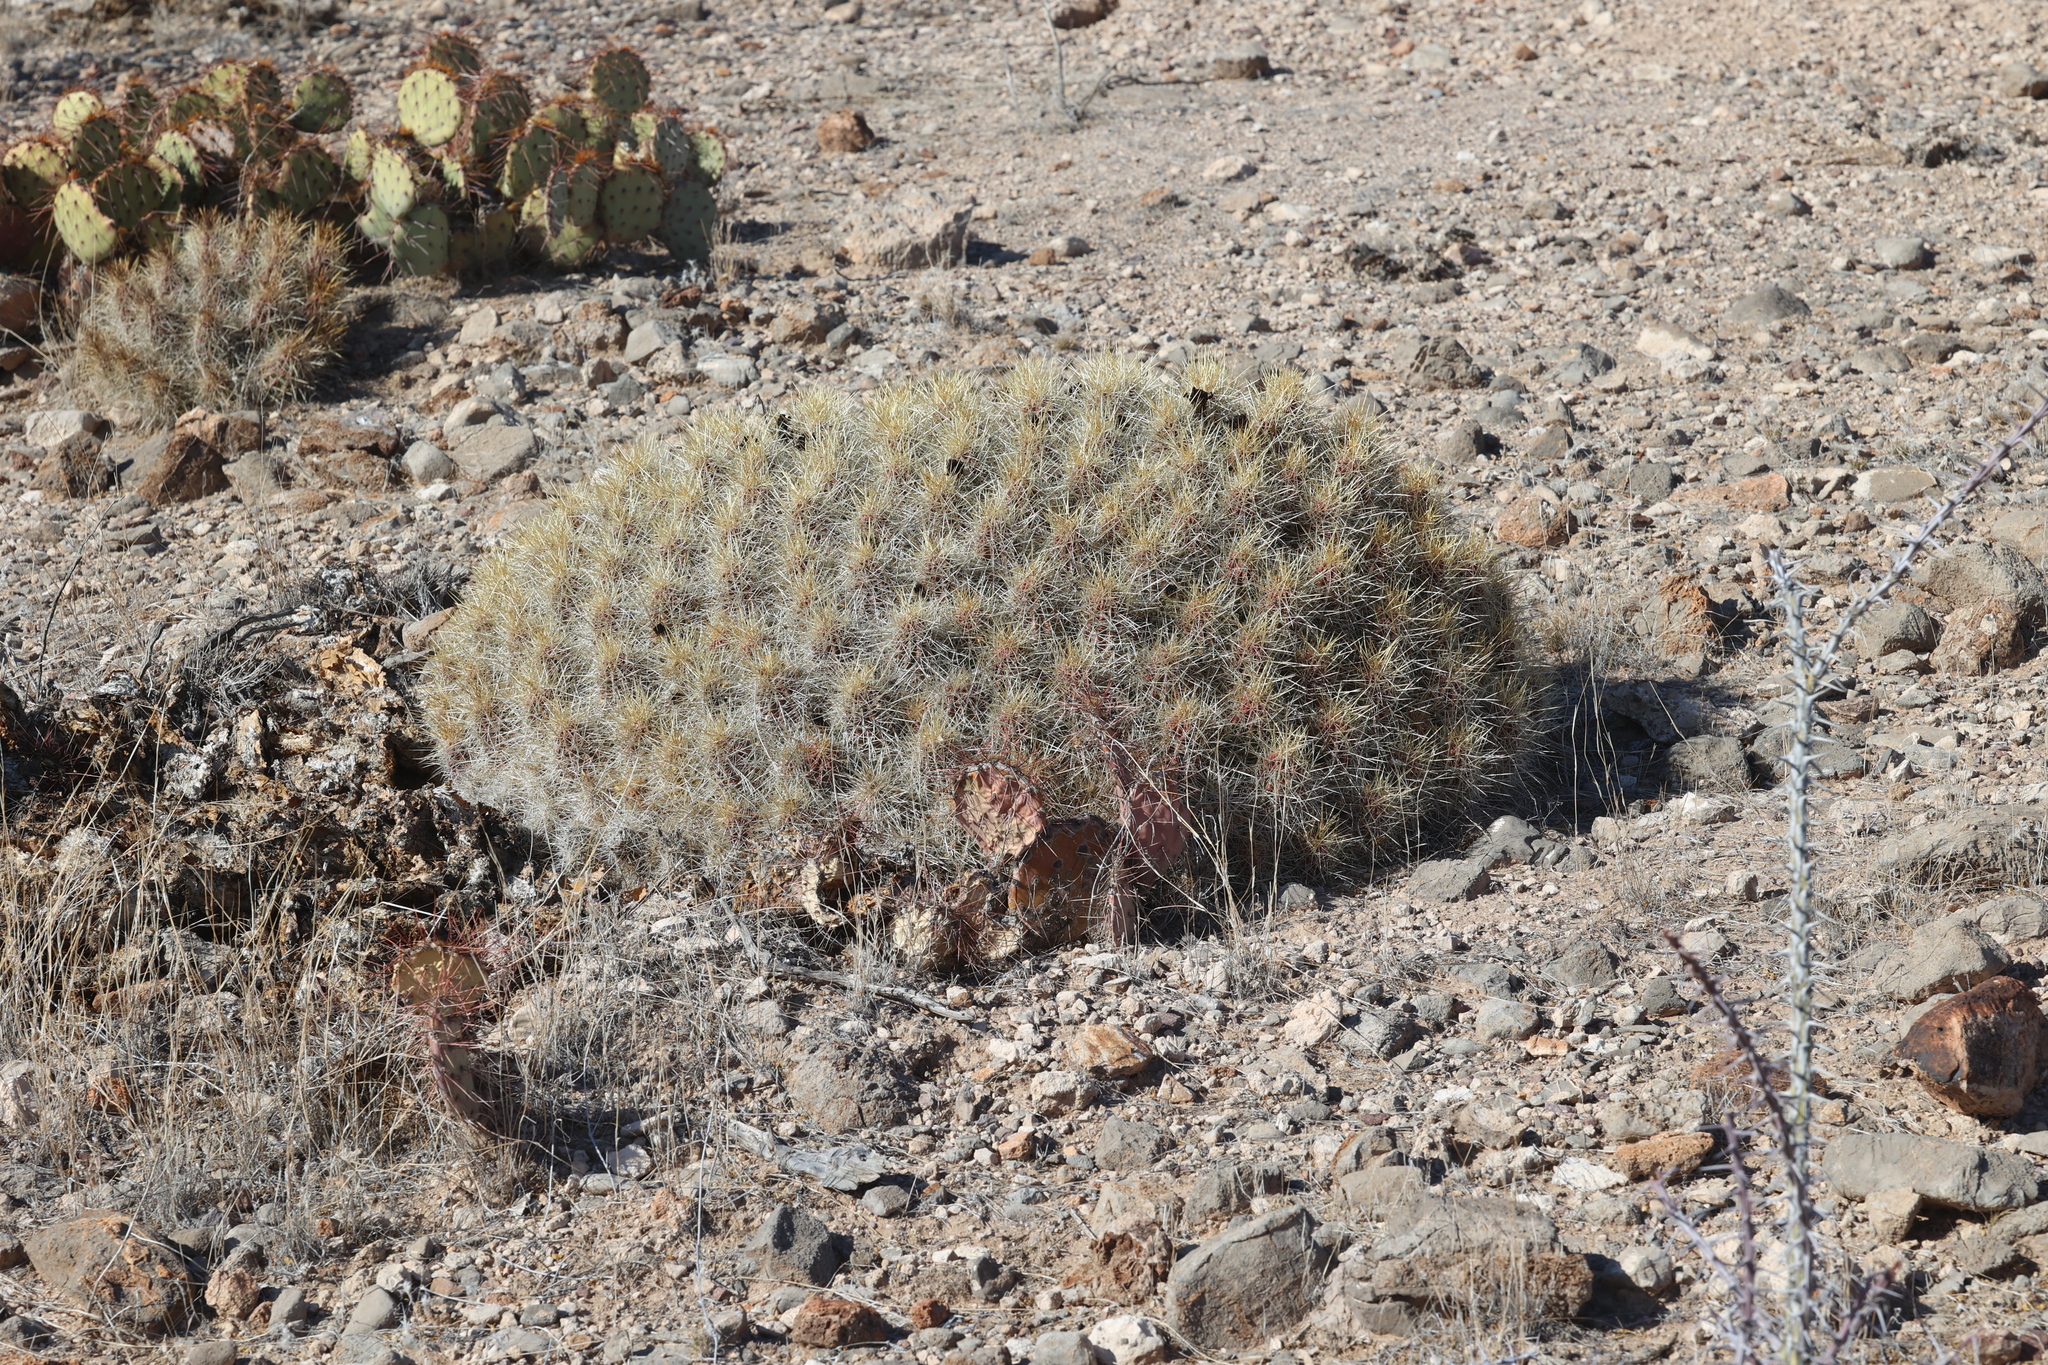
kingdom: Plantae
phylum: Tracheophyta
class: Magnoliopsida
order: Caryophyllales
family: Cactaceae
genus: Echinocereus
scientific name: Echinocereus stramineus
